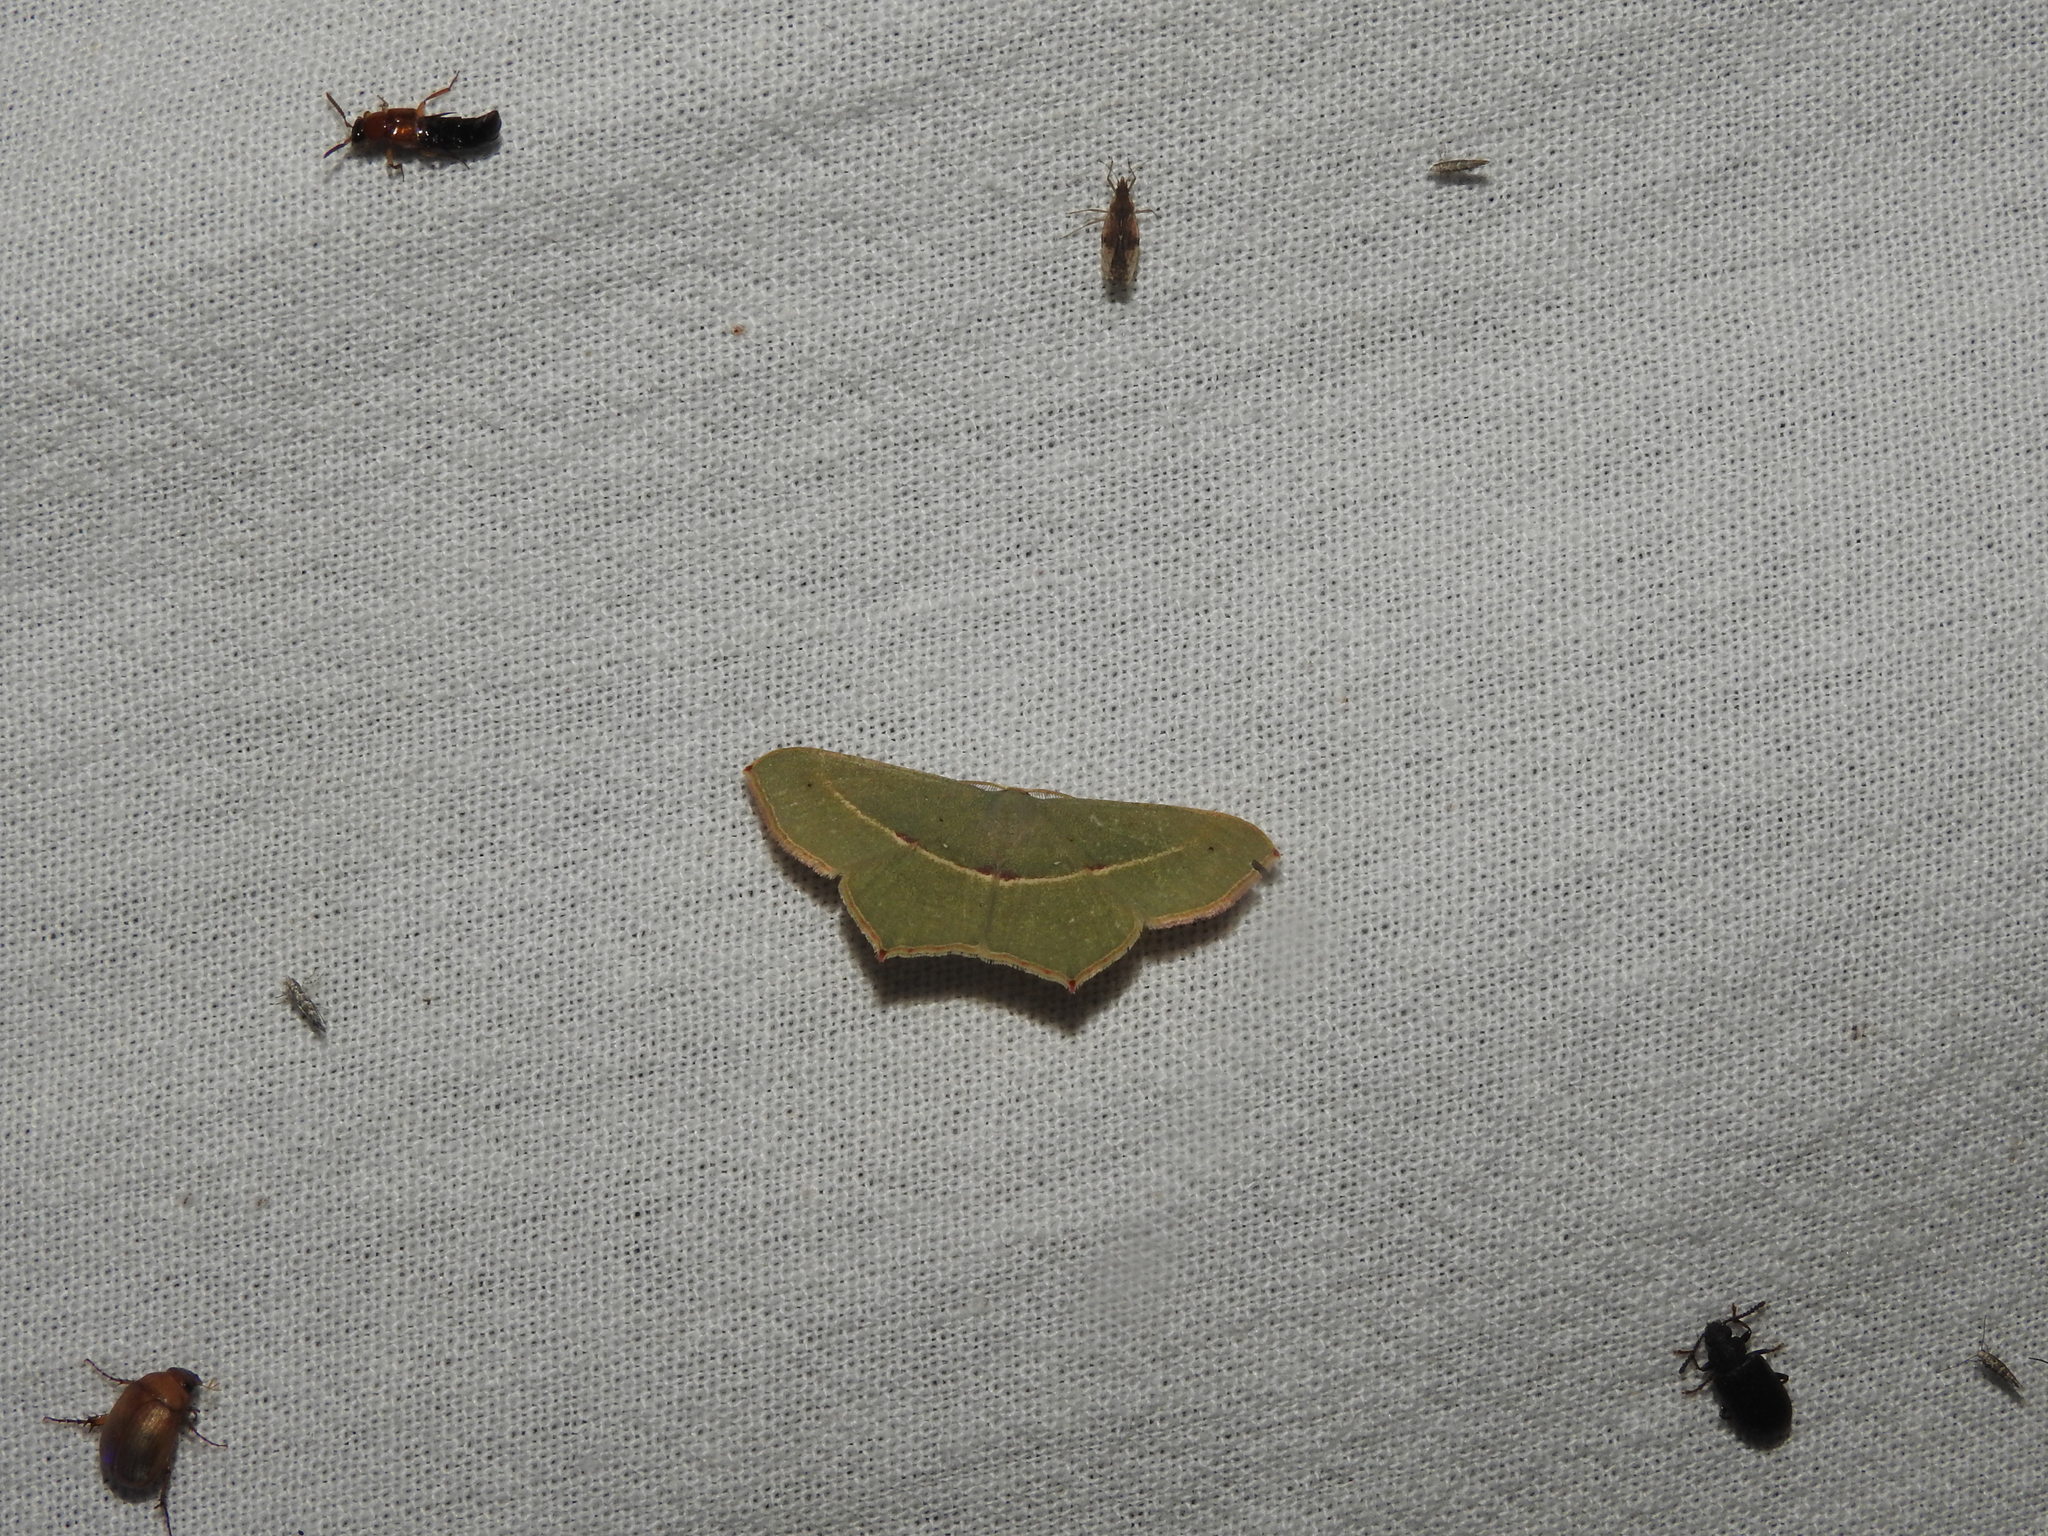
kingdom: Animalia
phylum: Arthropoda
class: Insecta
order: Lepidoptera
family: Geometridae
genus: Traminda
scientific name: Traminda mundissima
